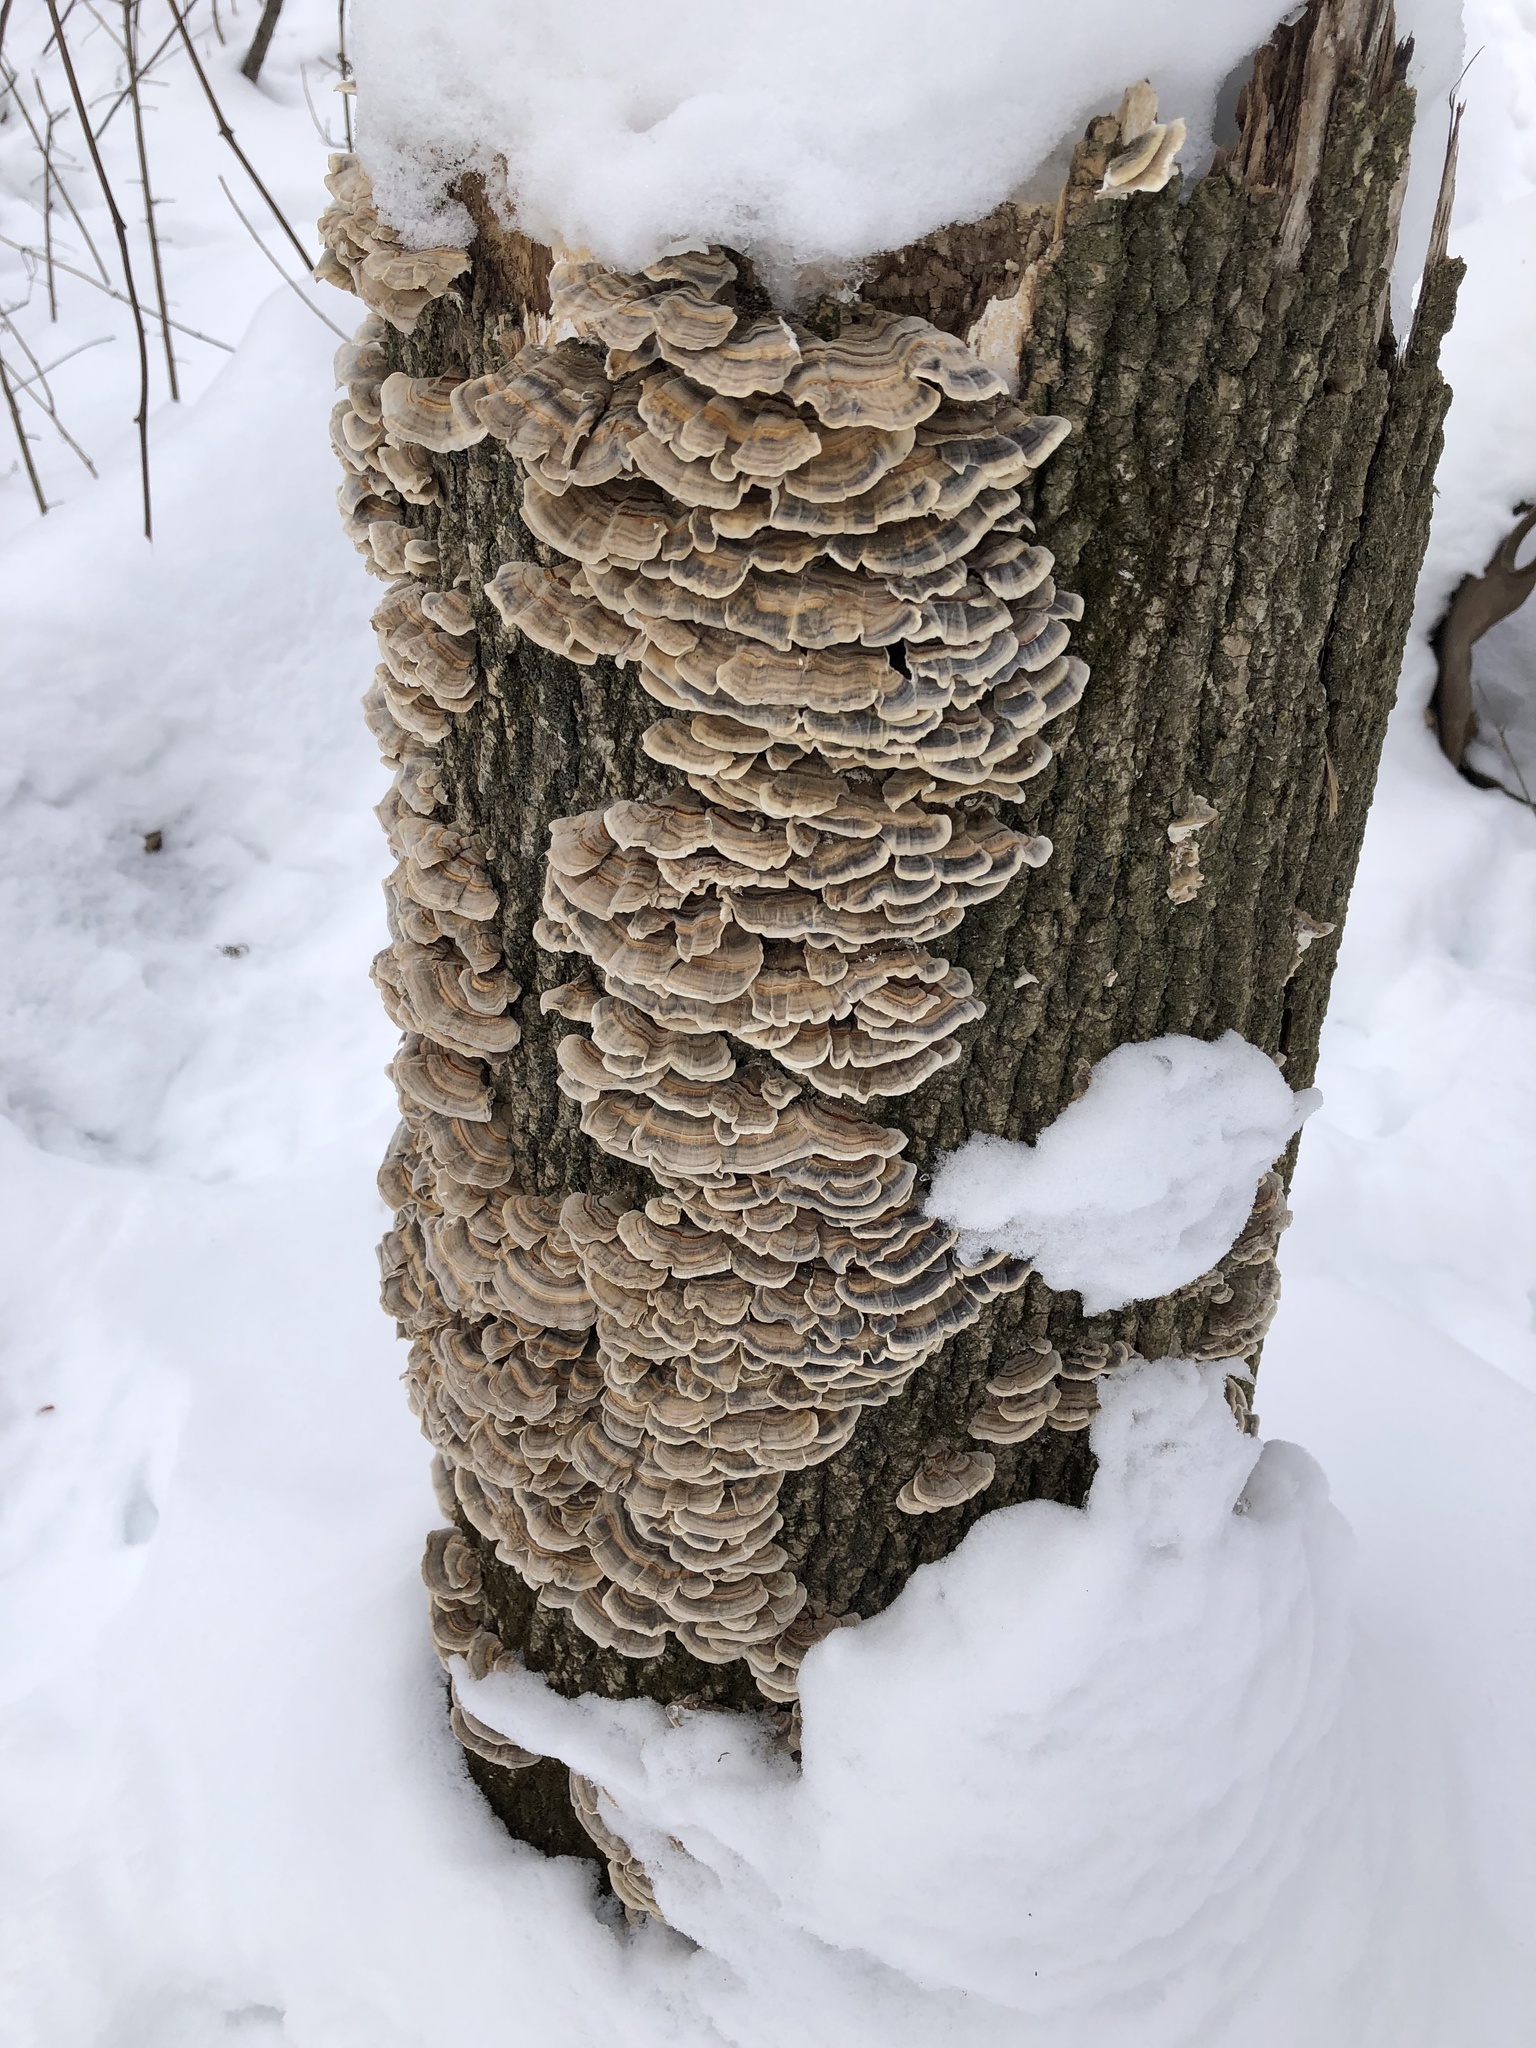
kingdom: Fungi
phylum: Basidiomycota
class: Agaricomycetes
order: Polyporales
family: Polyporaceae
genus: Trametes
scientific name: Trametes versicolor
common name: Turkeytail
